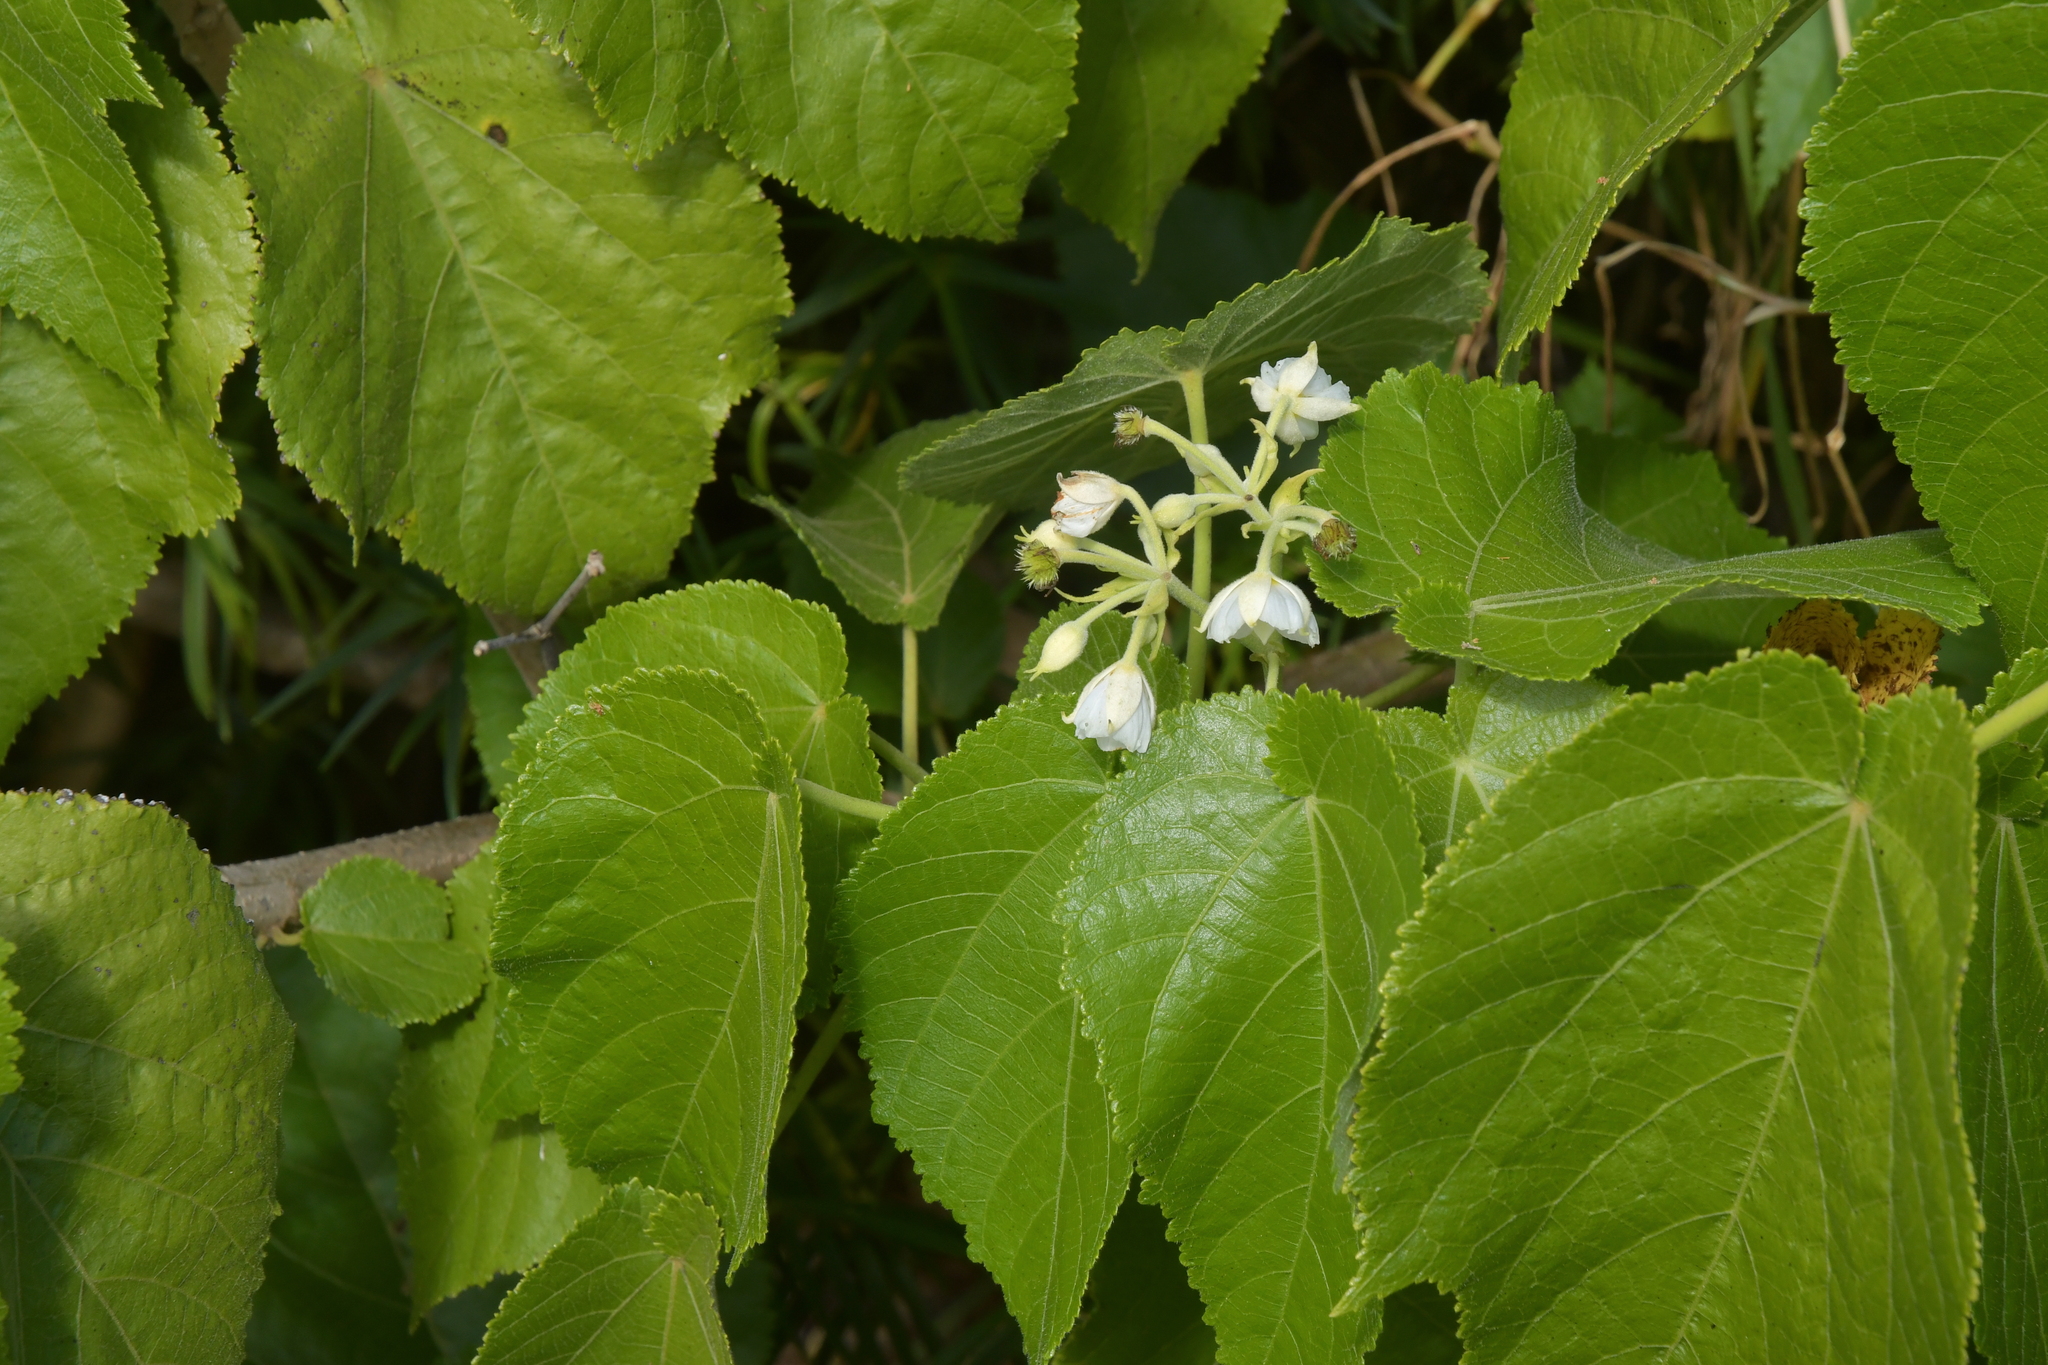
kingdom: Plantae
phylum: Tracheophyta
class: Magnoliopsida
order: Malvales
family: Malvaceae
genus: Entelea
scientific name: Entelea arborescens
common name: New zealand-mulberry
